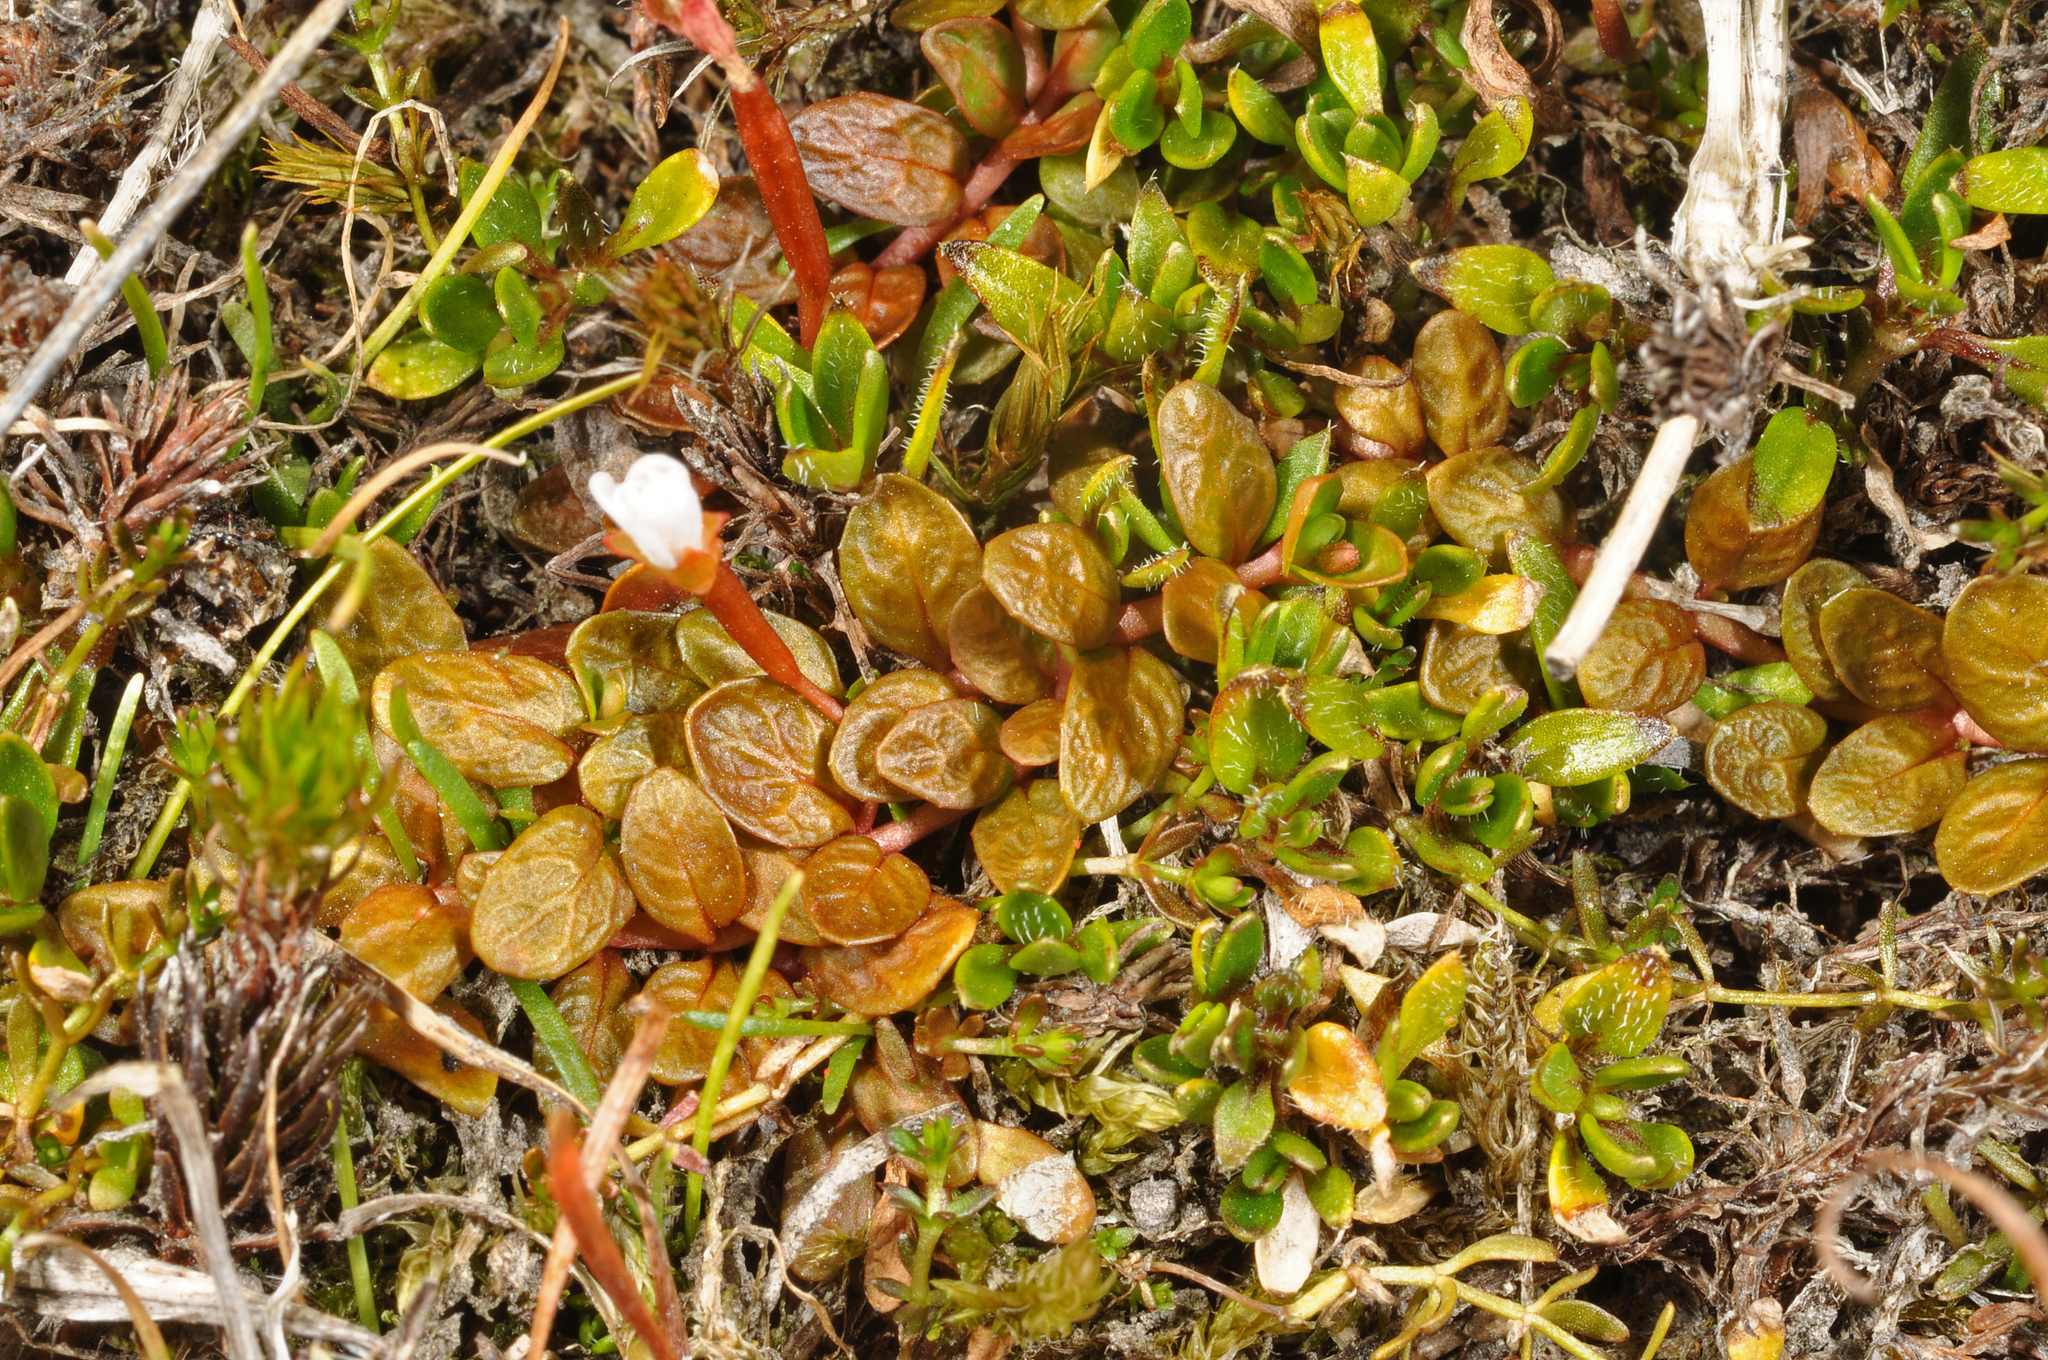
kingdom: Plantae
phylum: Tracheophyta
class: Magnoliopsida
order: Myrtales
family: Onagraceae
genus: Epilobium
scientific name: Epilobium angustum
